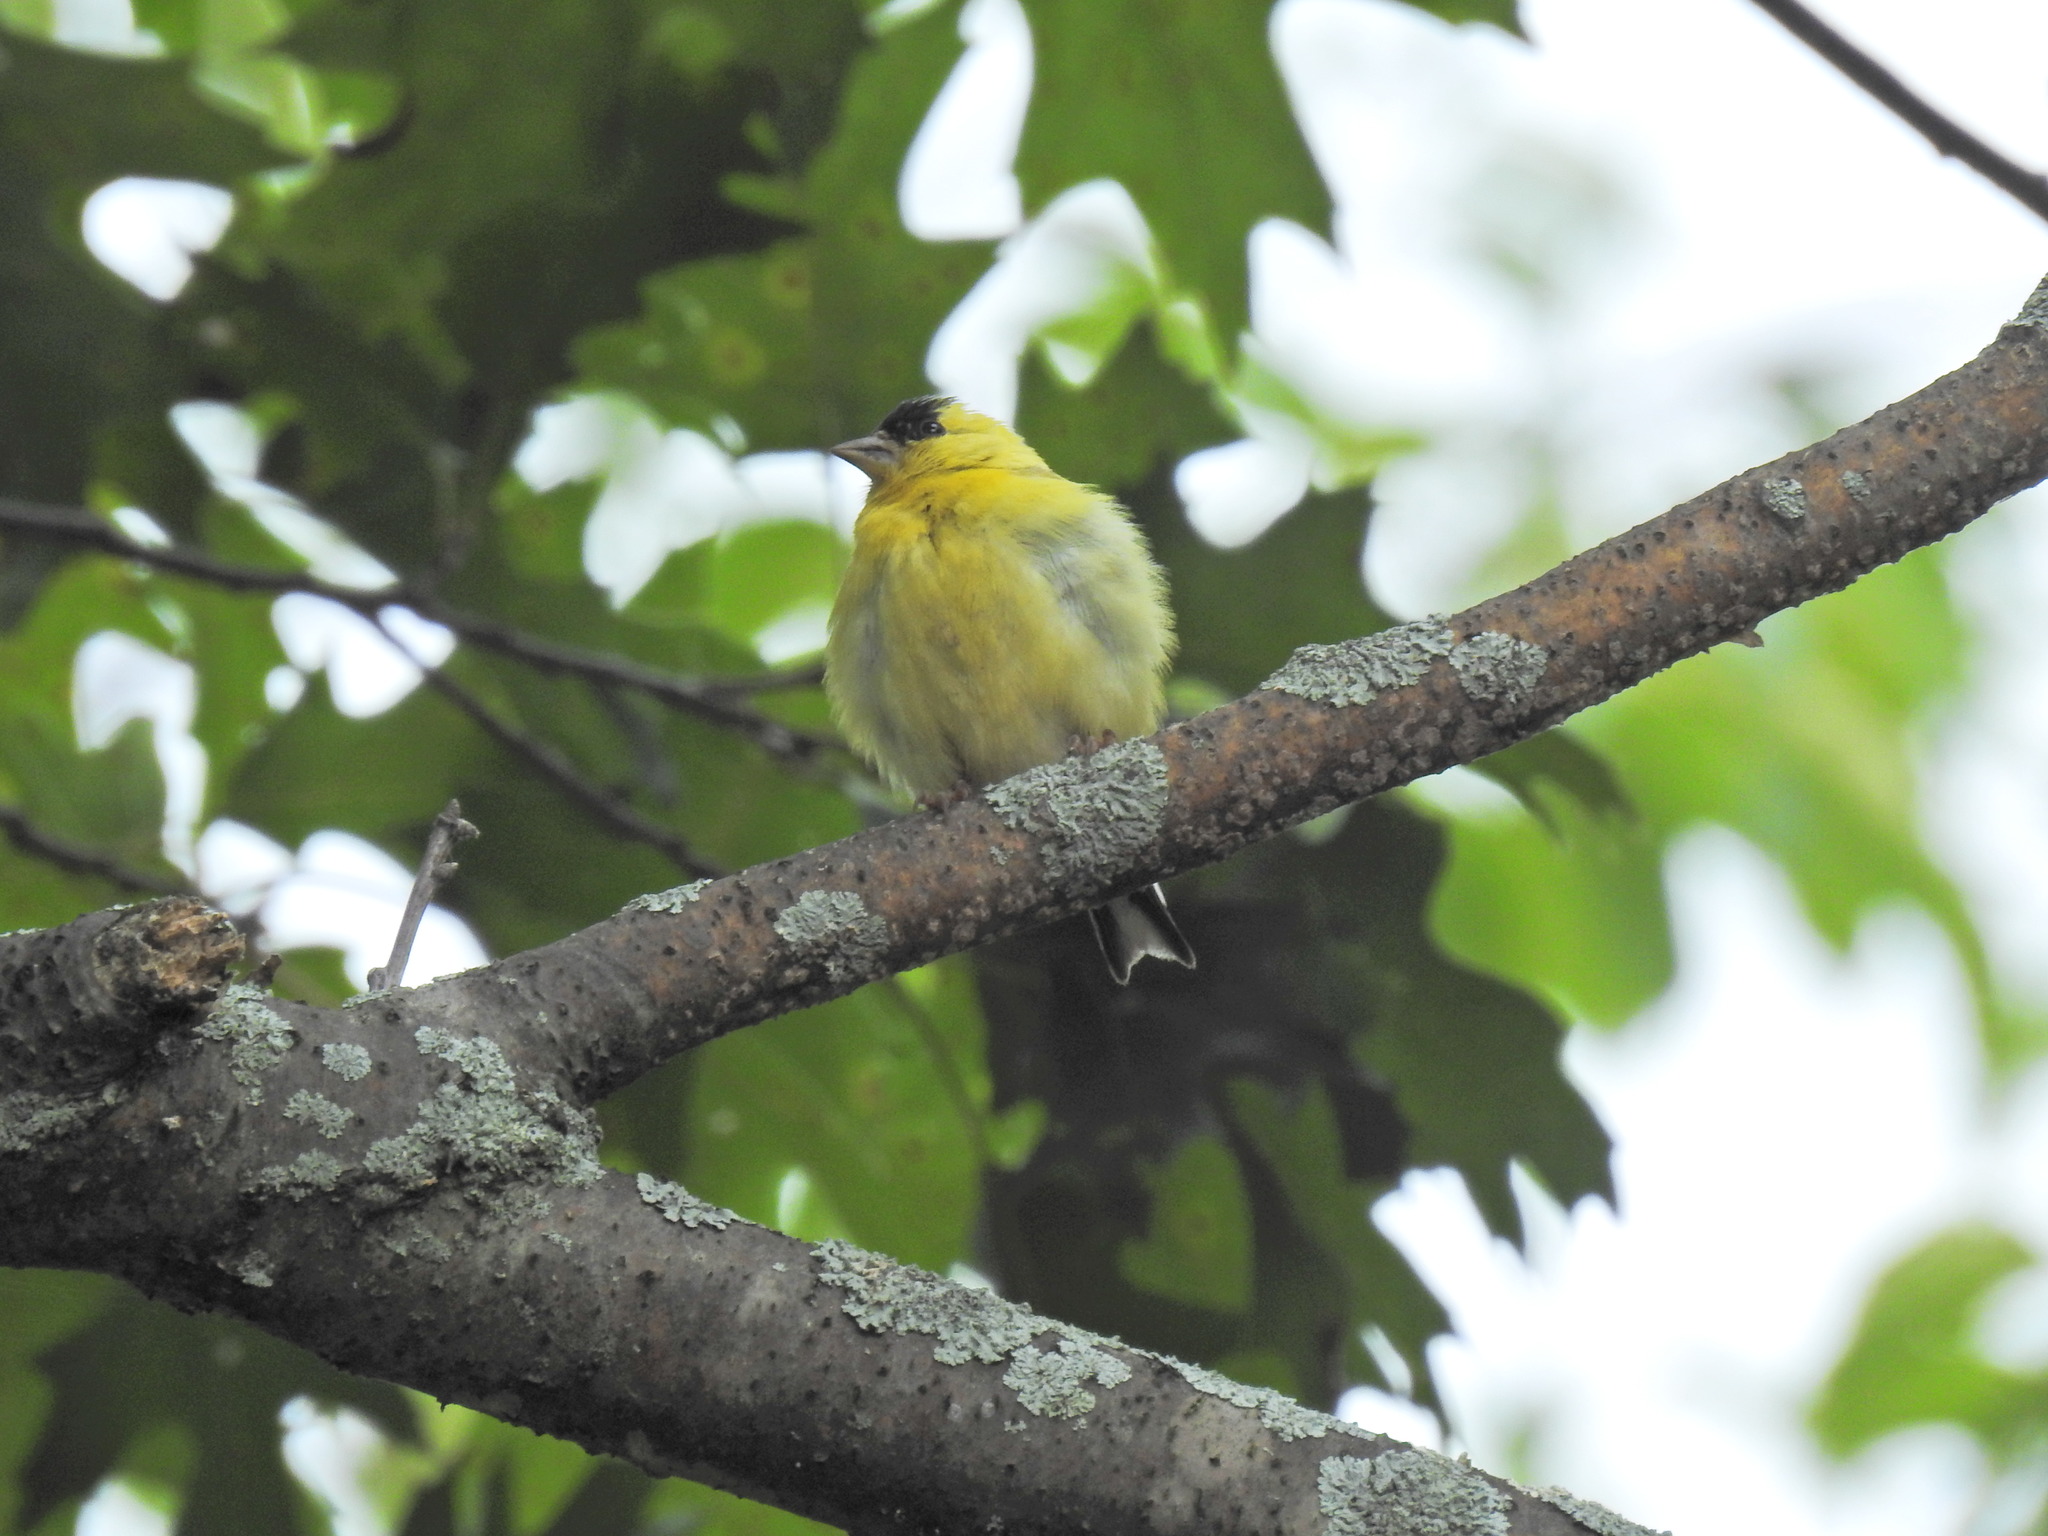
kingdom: Animalia
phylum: Chordata
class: Aves
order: Passeriformes
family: Fringillidae
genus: Spinus
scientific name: Spinus tristis
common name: American goldfinch
